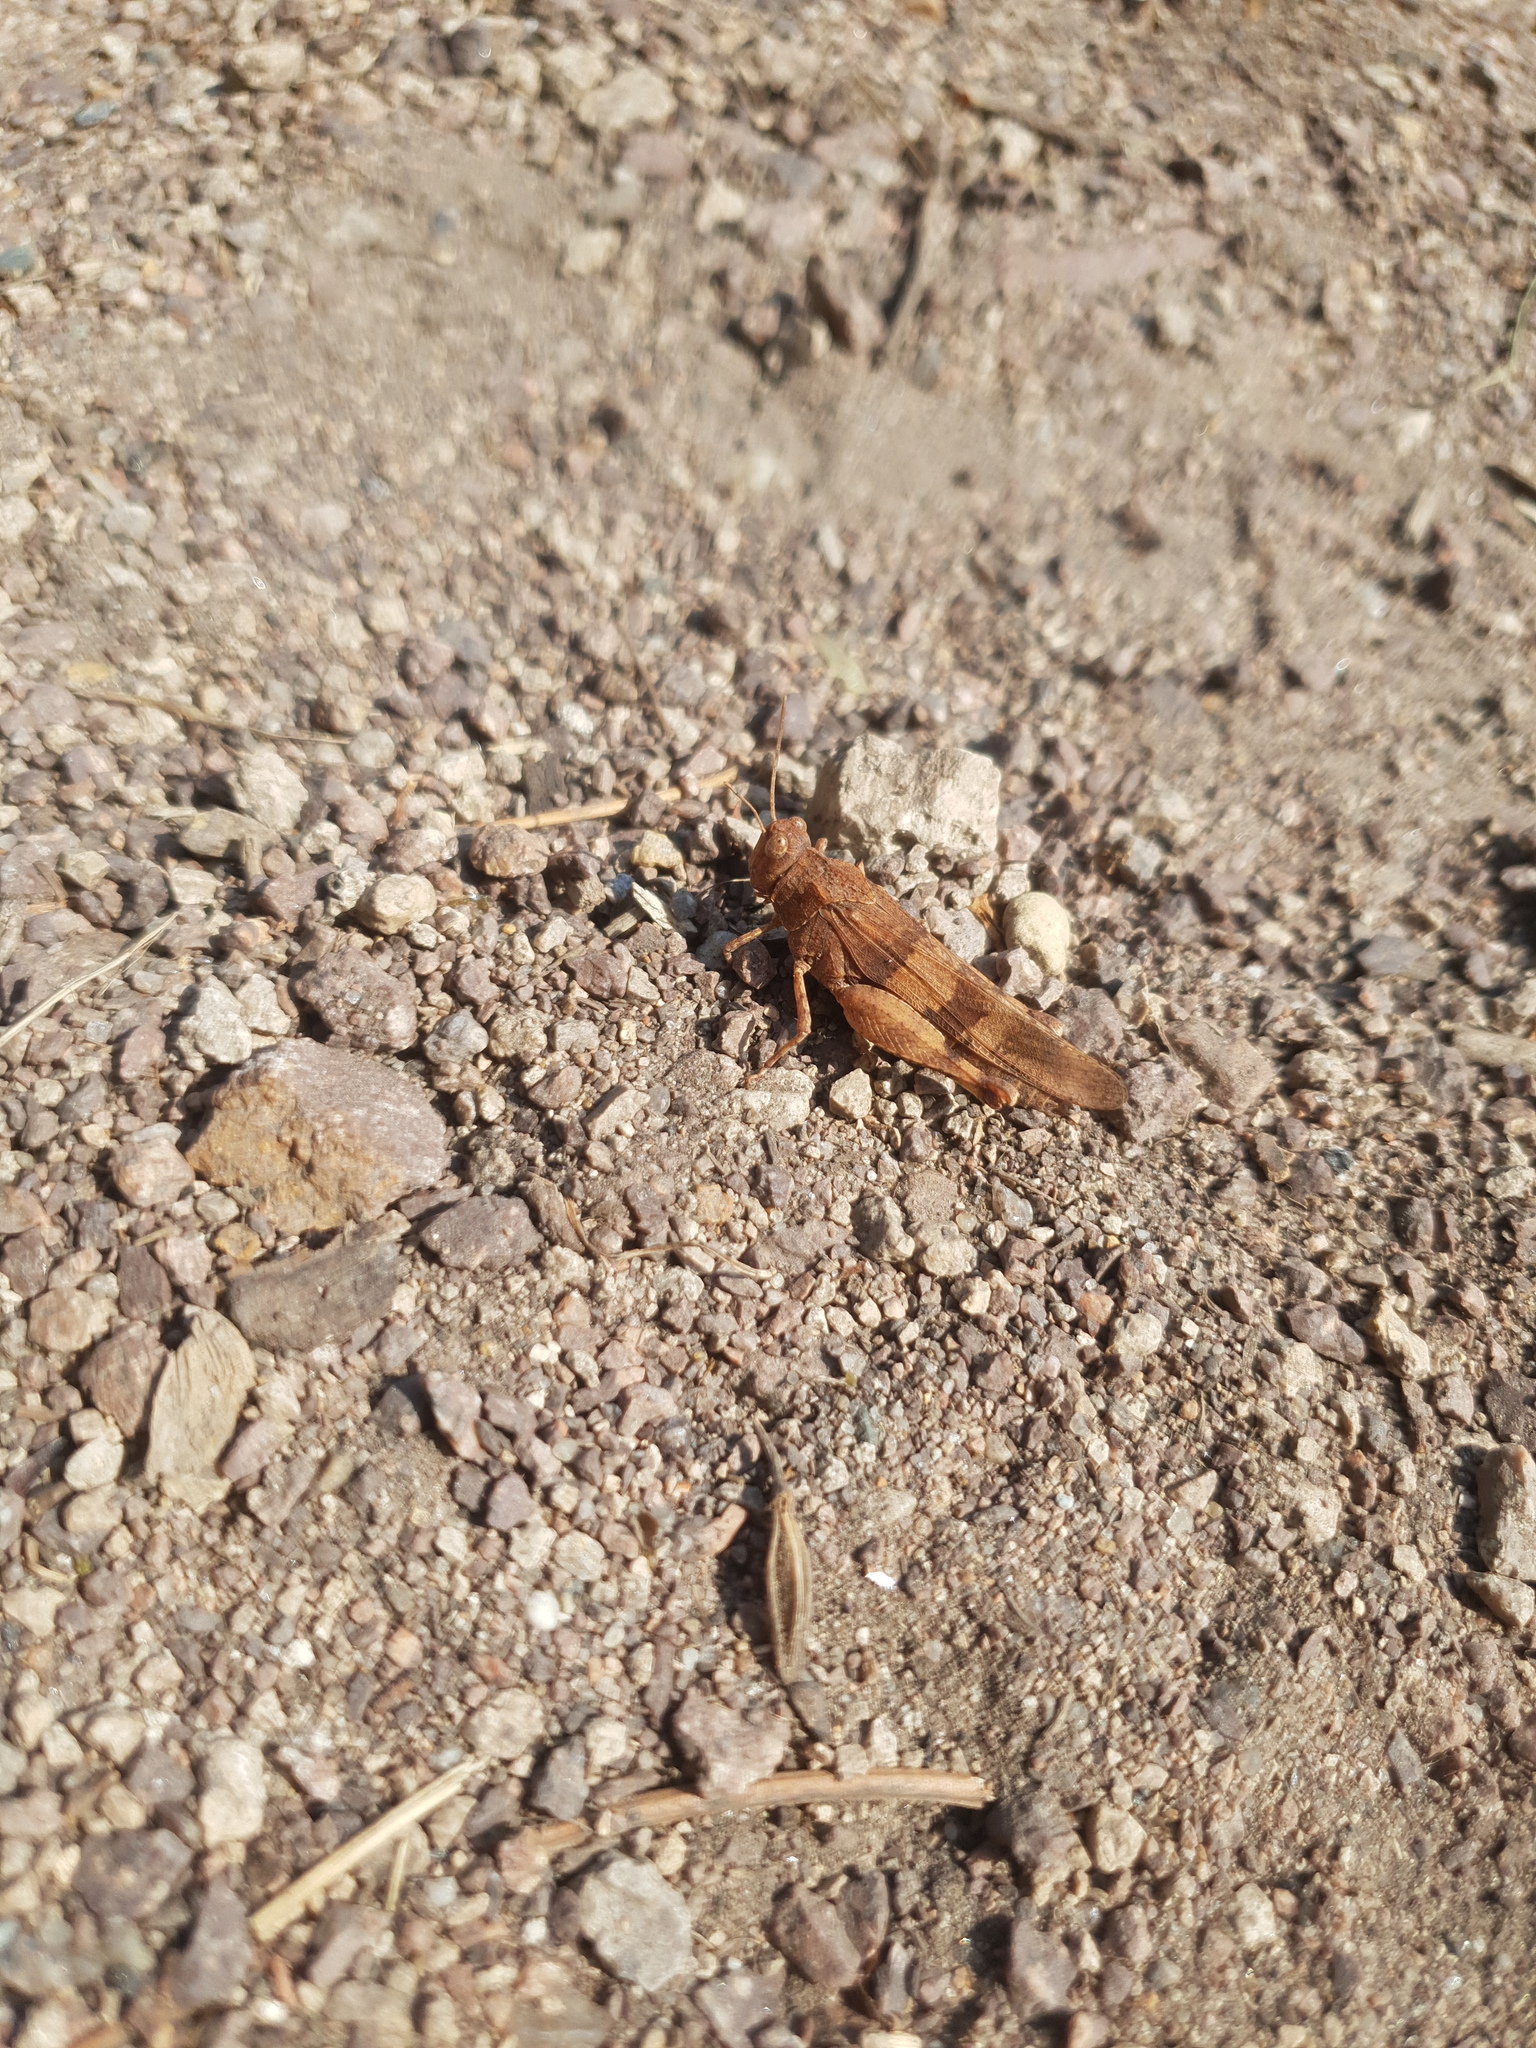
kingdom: Animalia
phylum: Arthropoda
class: Insecta
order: Orthoptera
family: Acrididae
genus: Oedipoda
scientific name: Oedipoda caerulescens
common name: Blue-winged grasshopper
